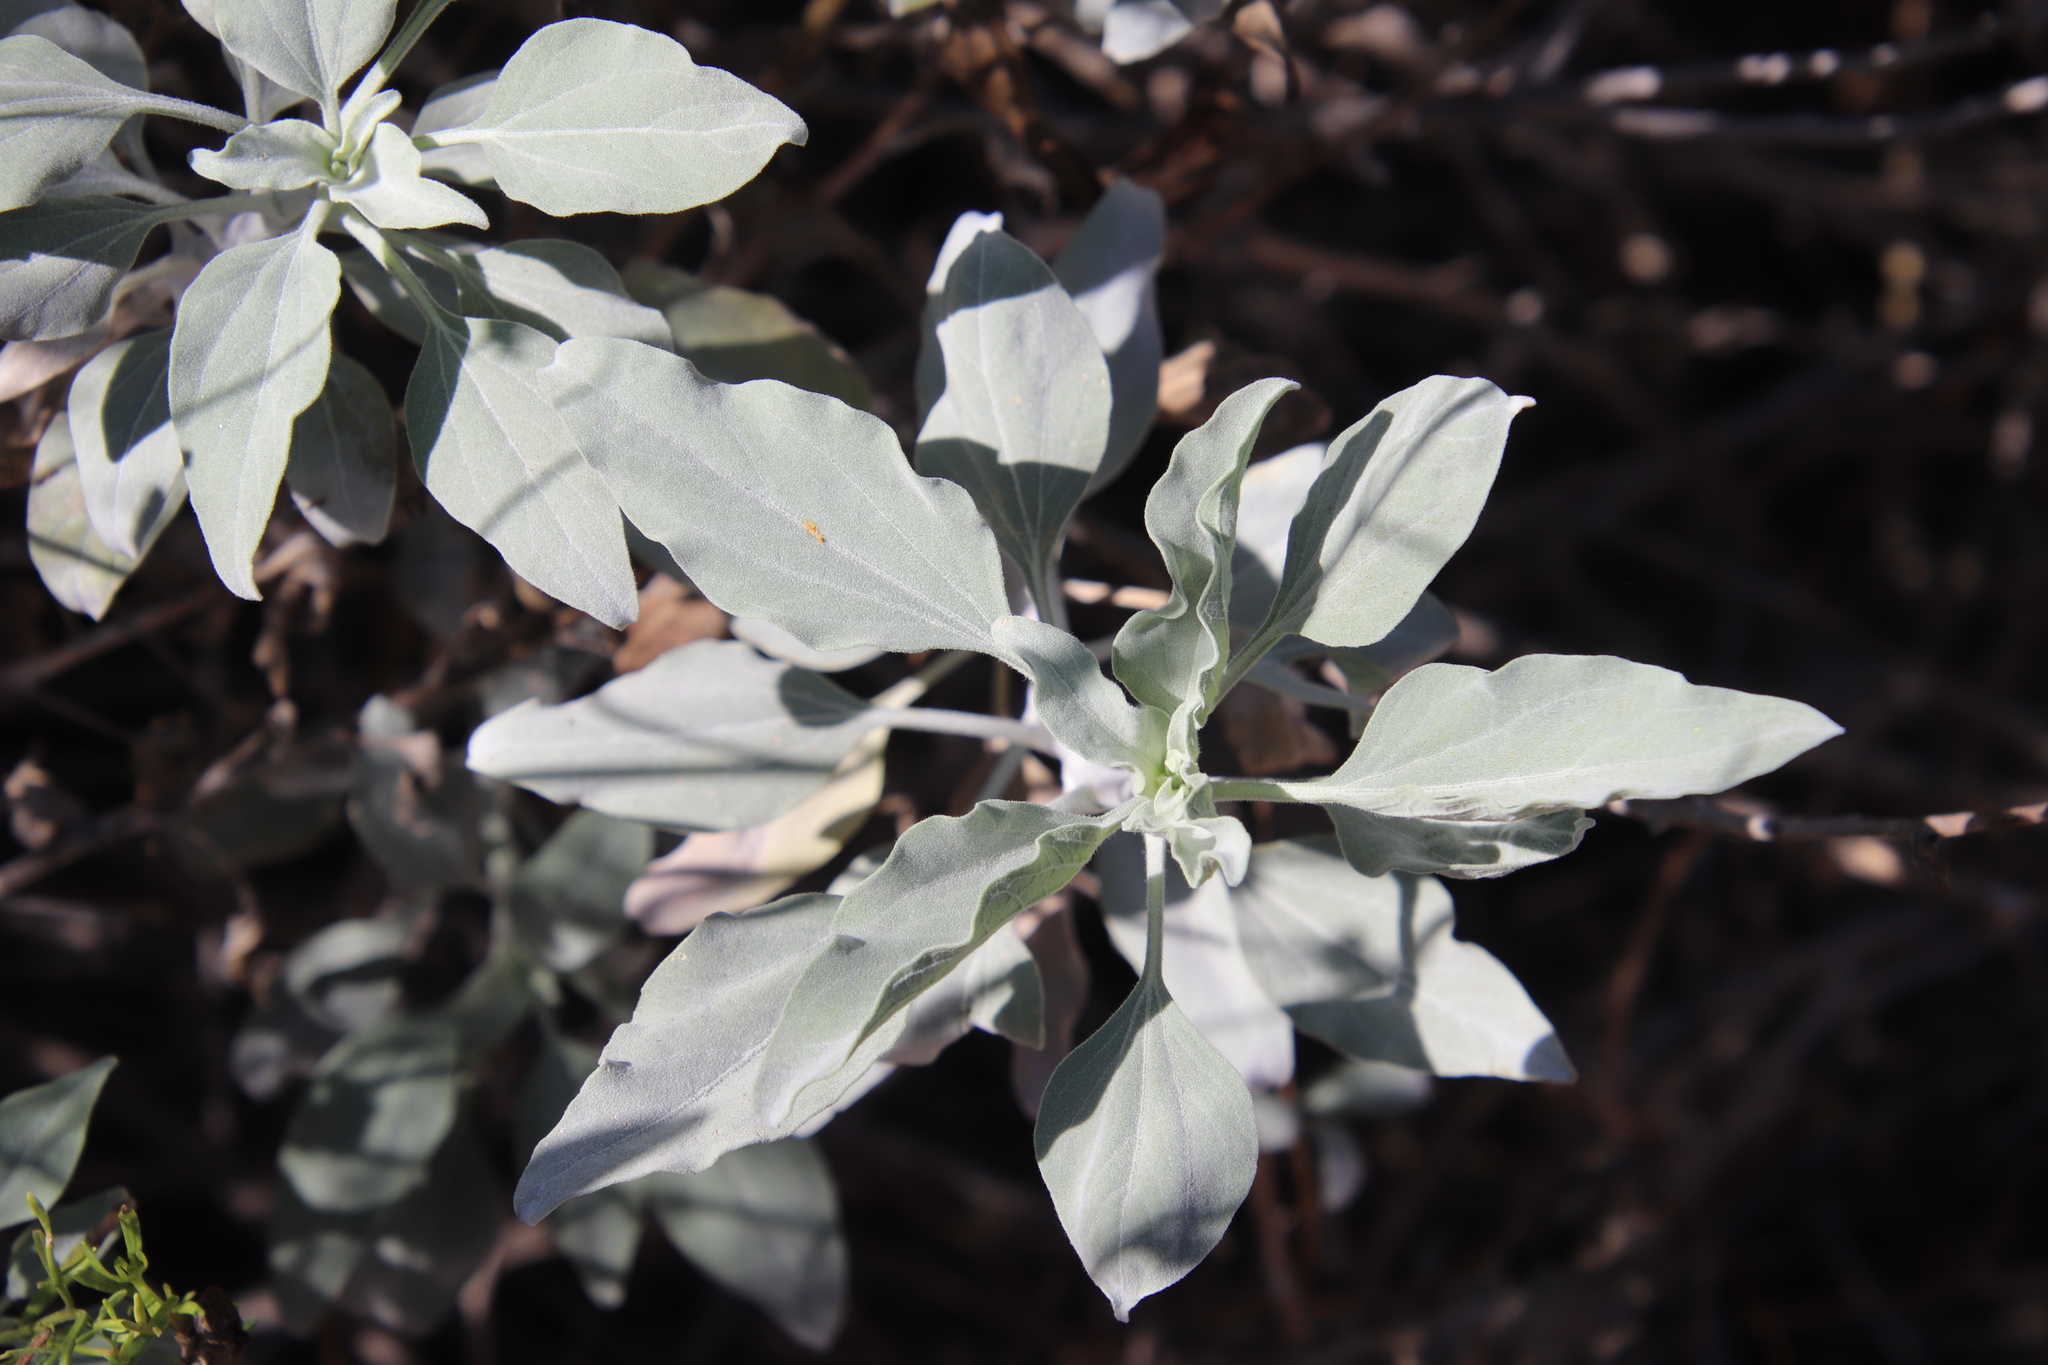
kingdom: Plantae
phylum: Tracheophyta
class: Magnoliopsida
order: Asterales
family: Asteraceae
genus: Encelia
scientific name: Encelia farinosa
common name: Brittlebush
